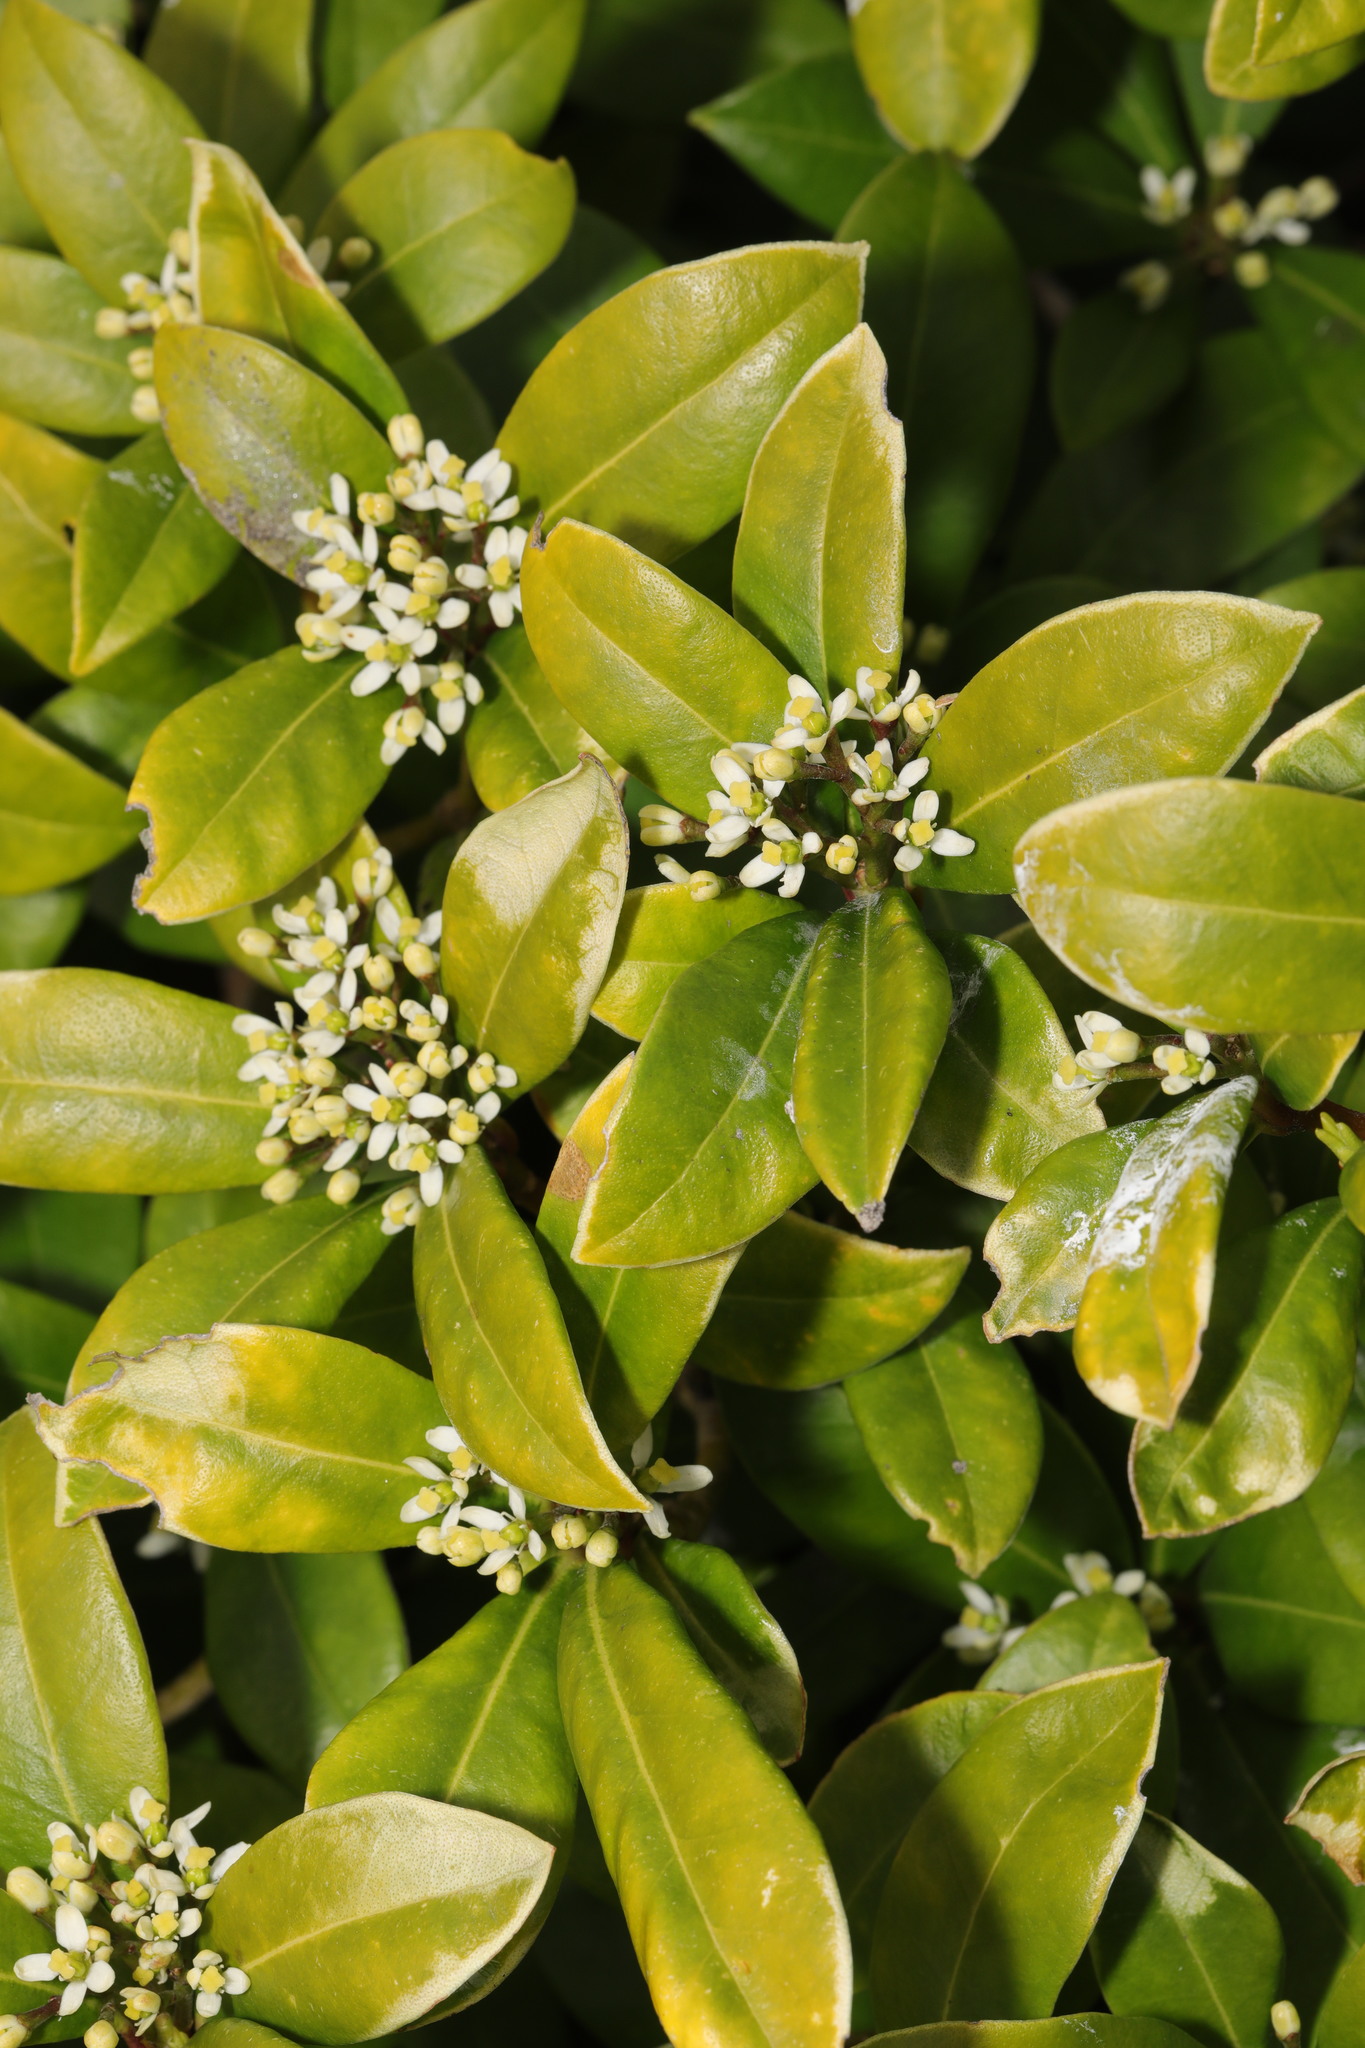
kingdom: Plantae
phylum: Tracheophyta
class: Magnoliopsida
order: Sapindales
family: Rutaceae
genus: Skimmia
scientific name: Skimmia japonica
